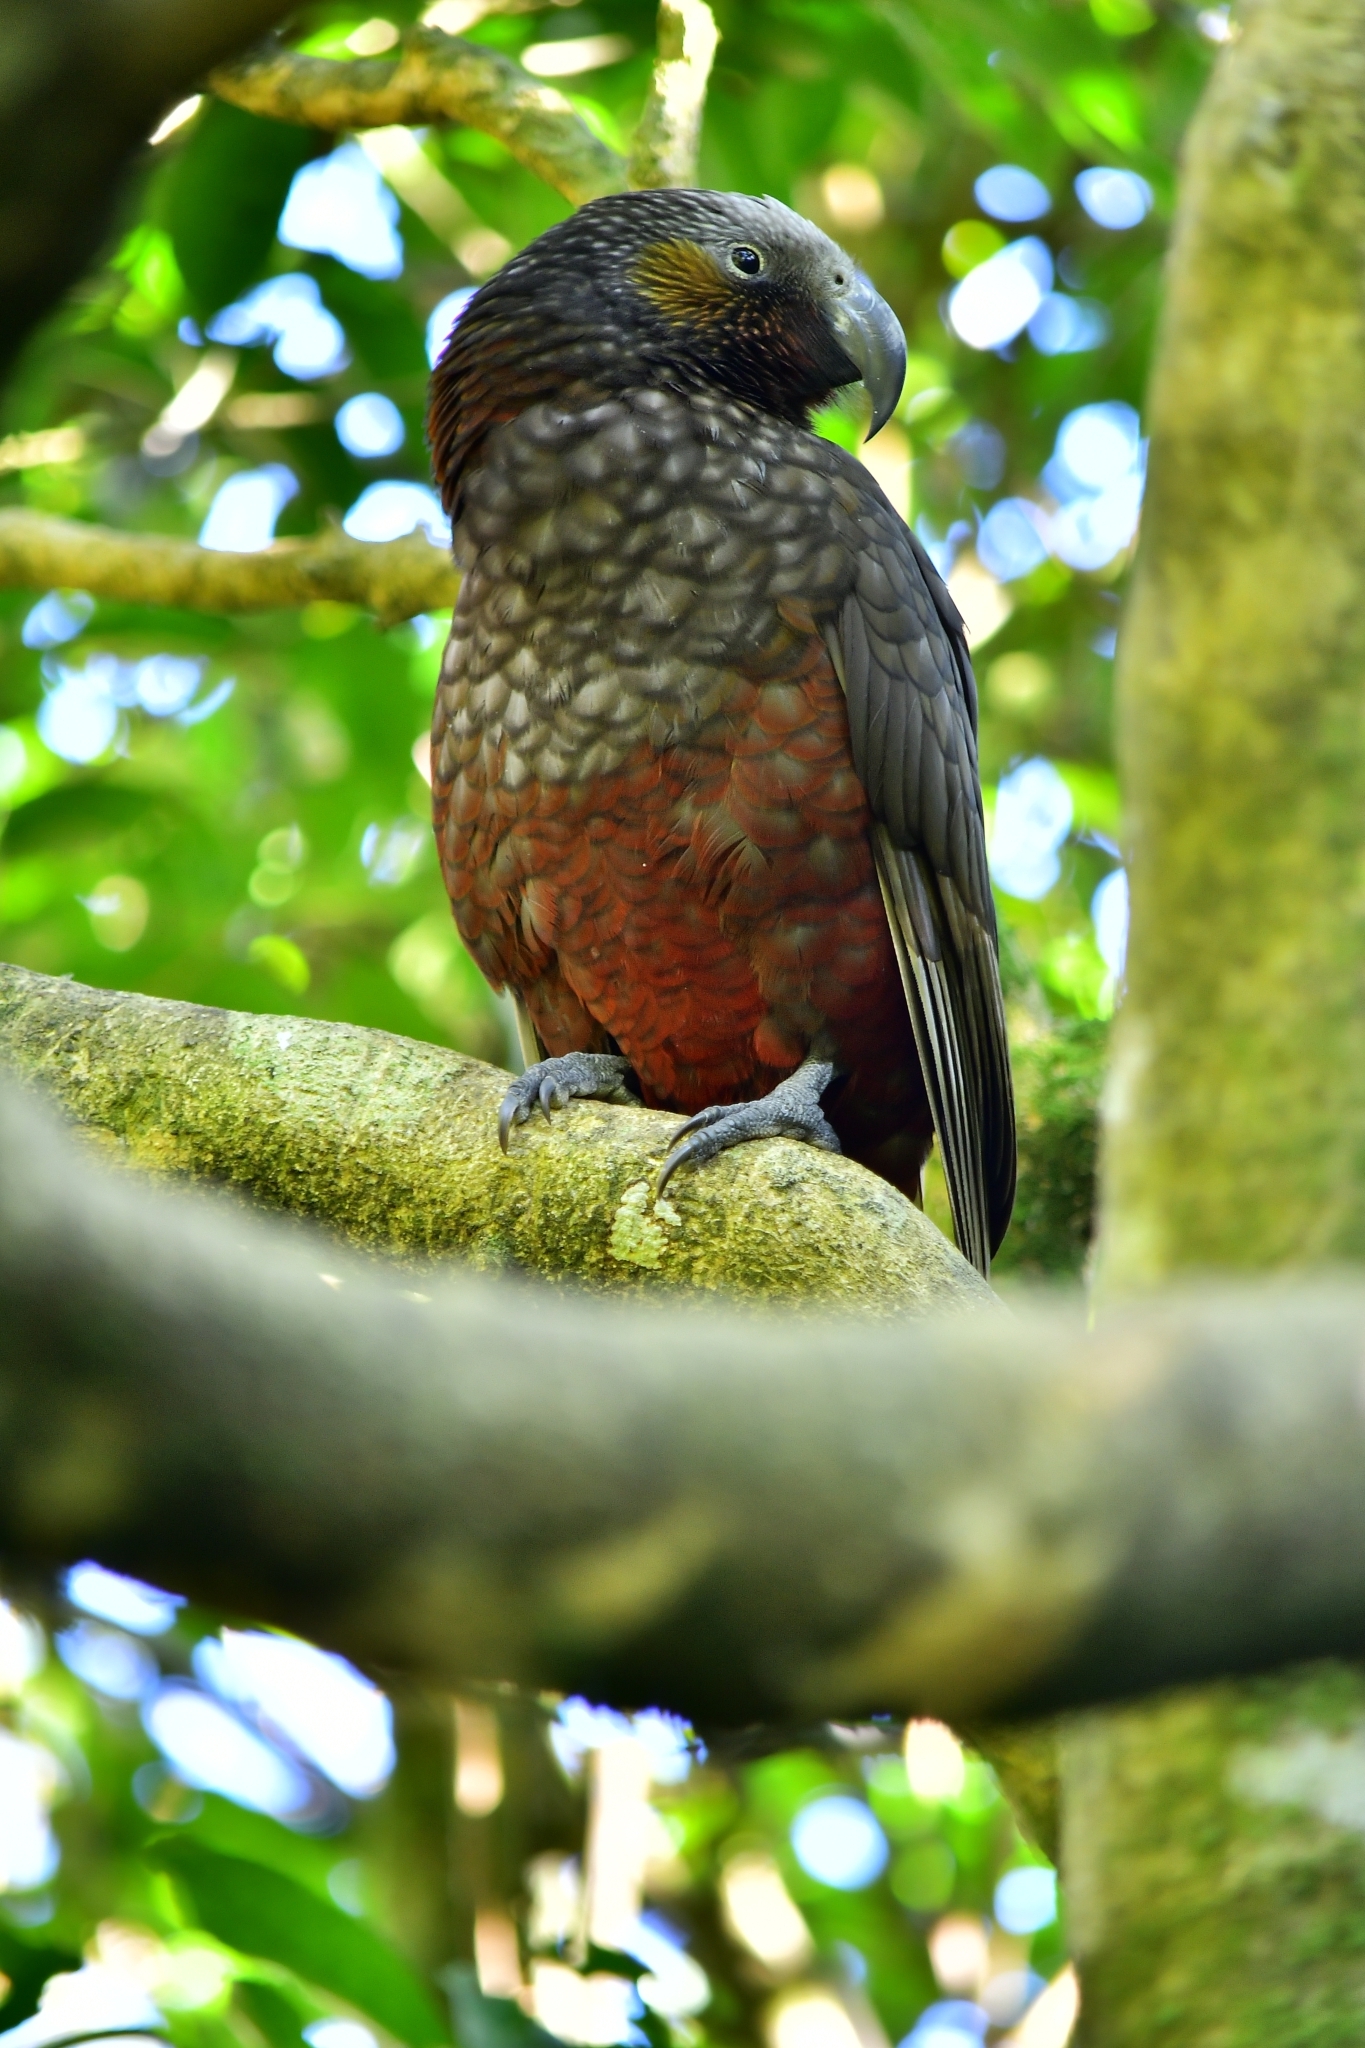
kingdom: Animalia
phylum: Chordata
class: Aves
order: Psittaciformes
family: Psittacidae
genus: Nestor
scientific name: Nestor meridionalis
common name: New zealand kaka
